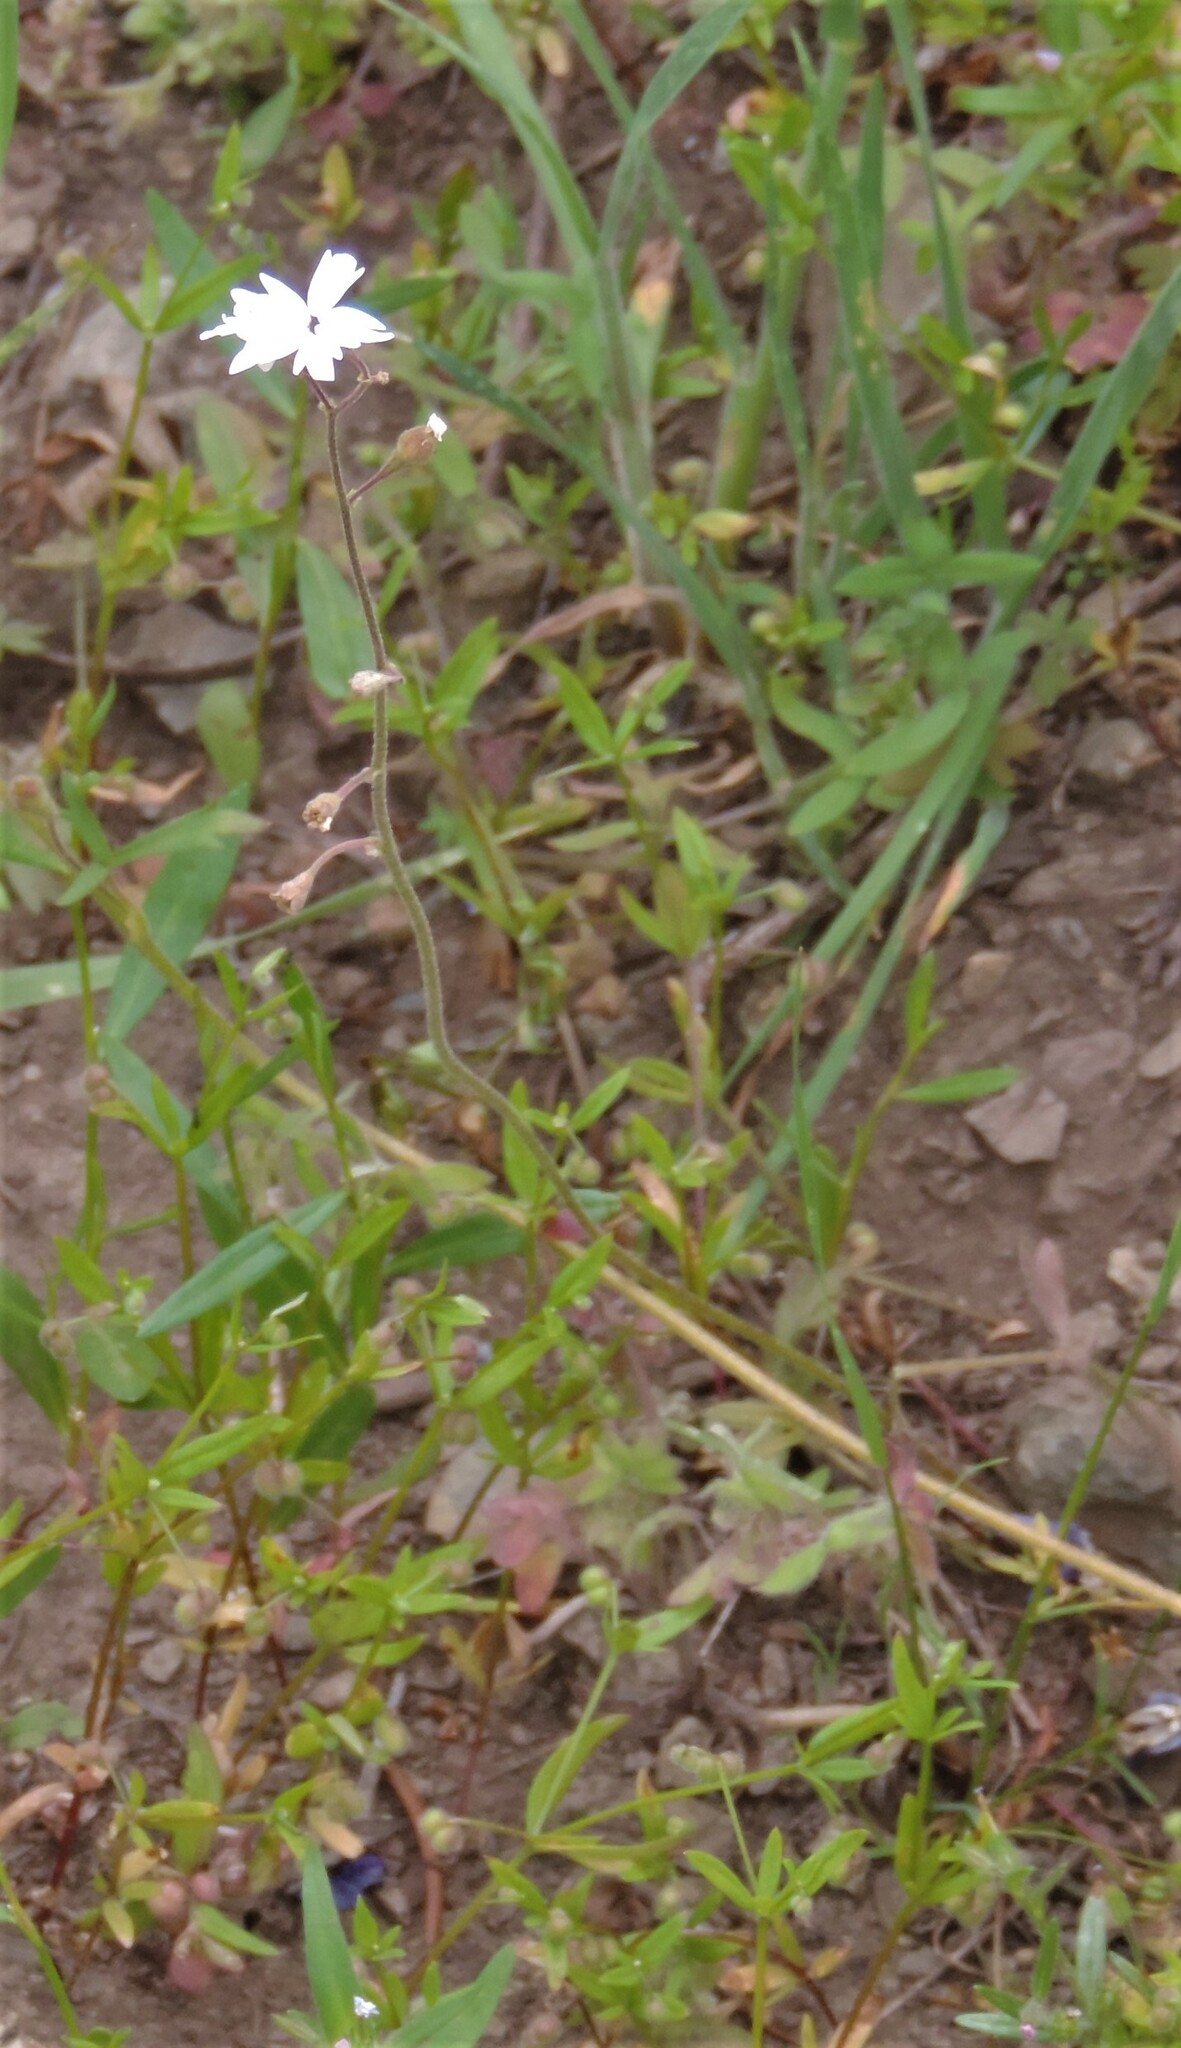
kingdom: Plantae
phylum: Tracheophyta
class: Magnoliopsida
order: Saxifragales
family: Saxifragaceae
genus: Lithophragma
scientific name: Lithophragma parviflorum
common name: Small-flowered fringe-cup
